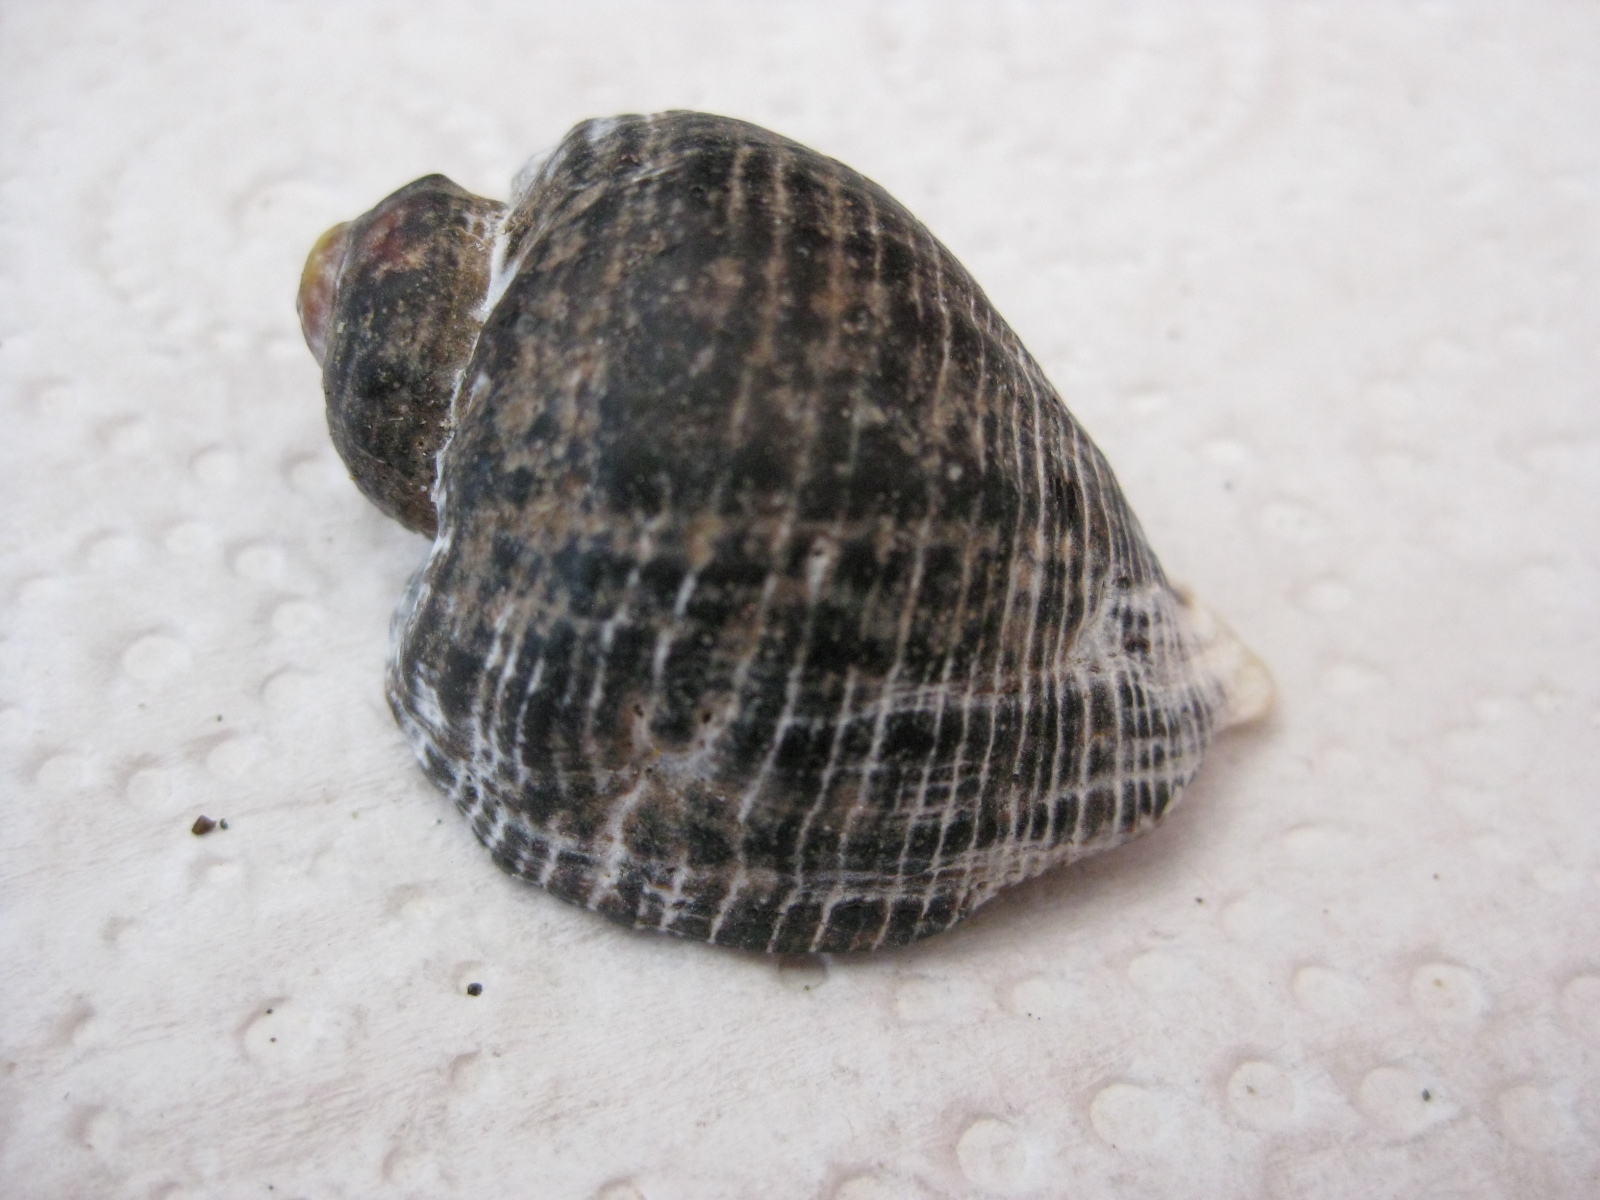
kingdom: Animalia
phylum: Mollusca
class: Gastropoda
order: Neogastropoda
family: Muricidae
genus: Haustrum
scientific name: Haustrum haustorium
